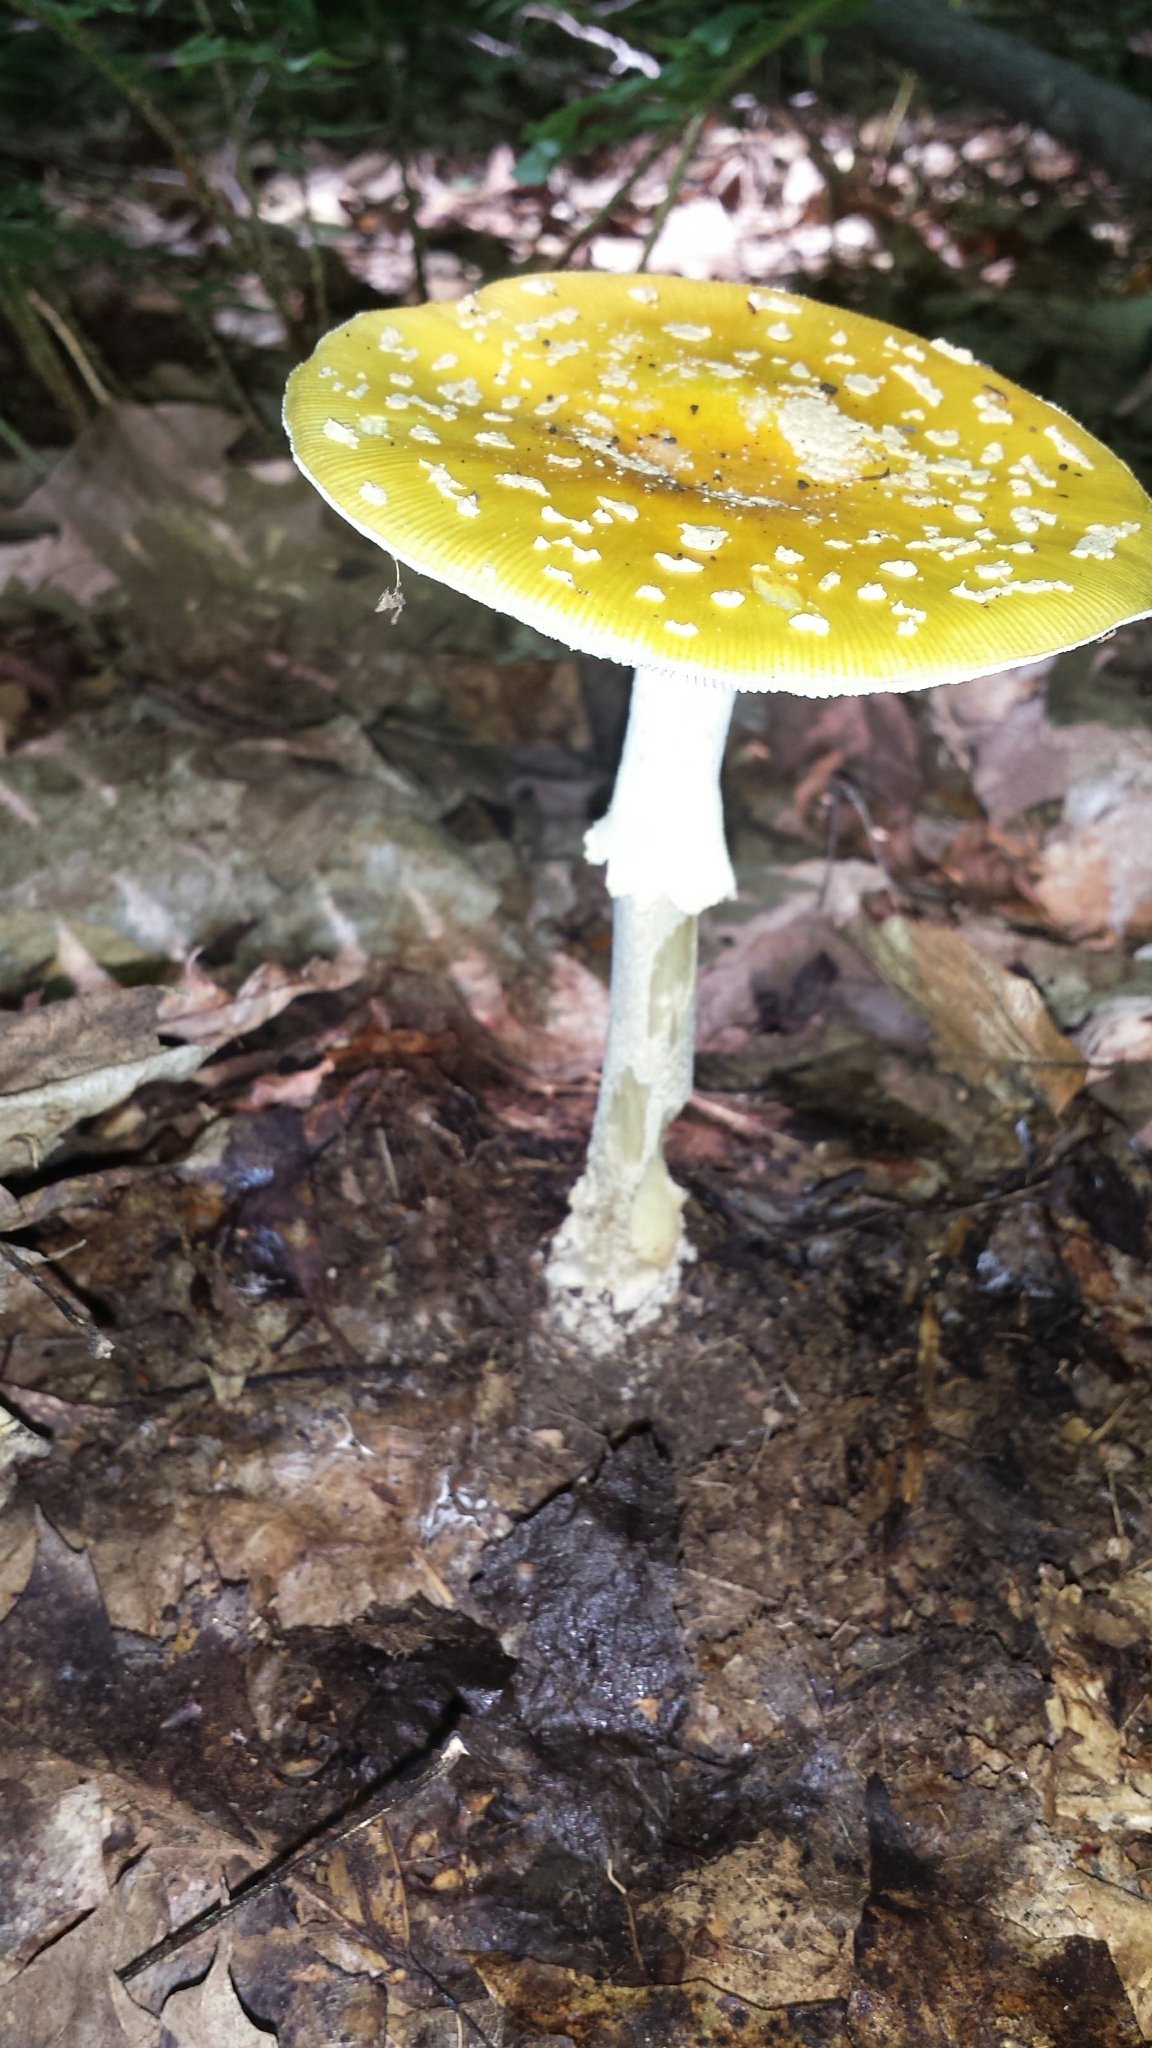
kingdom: Fungi
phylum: Basidiomycota
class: Agaricomycetes
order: Agaricales
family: Amanitaceae
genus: Amanita
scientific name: Amanita muscaria
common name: Fly agaric
